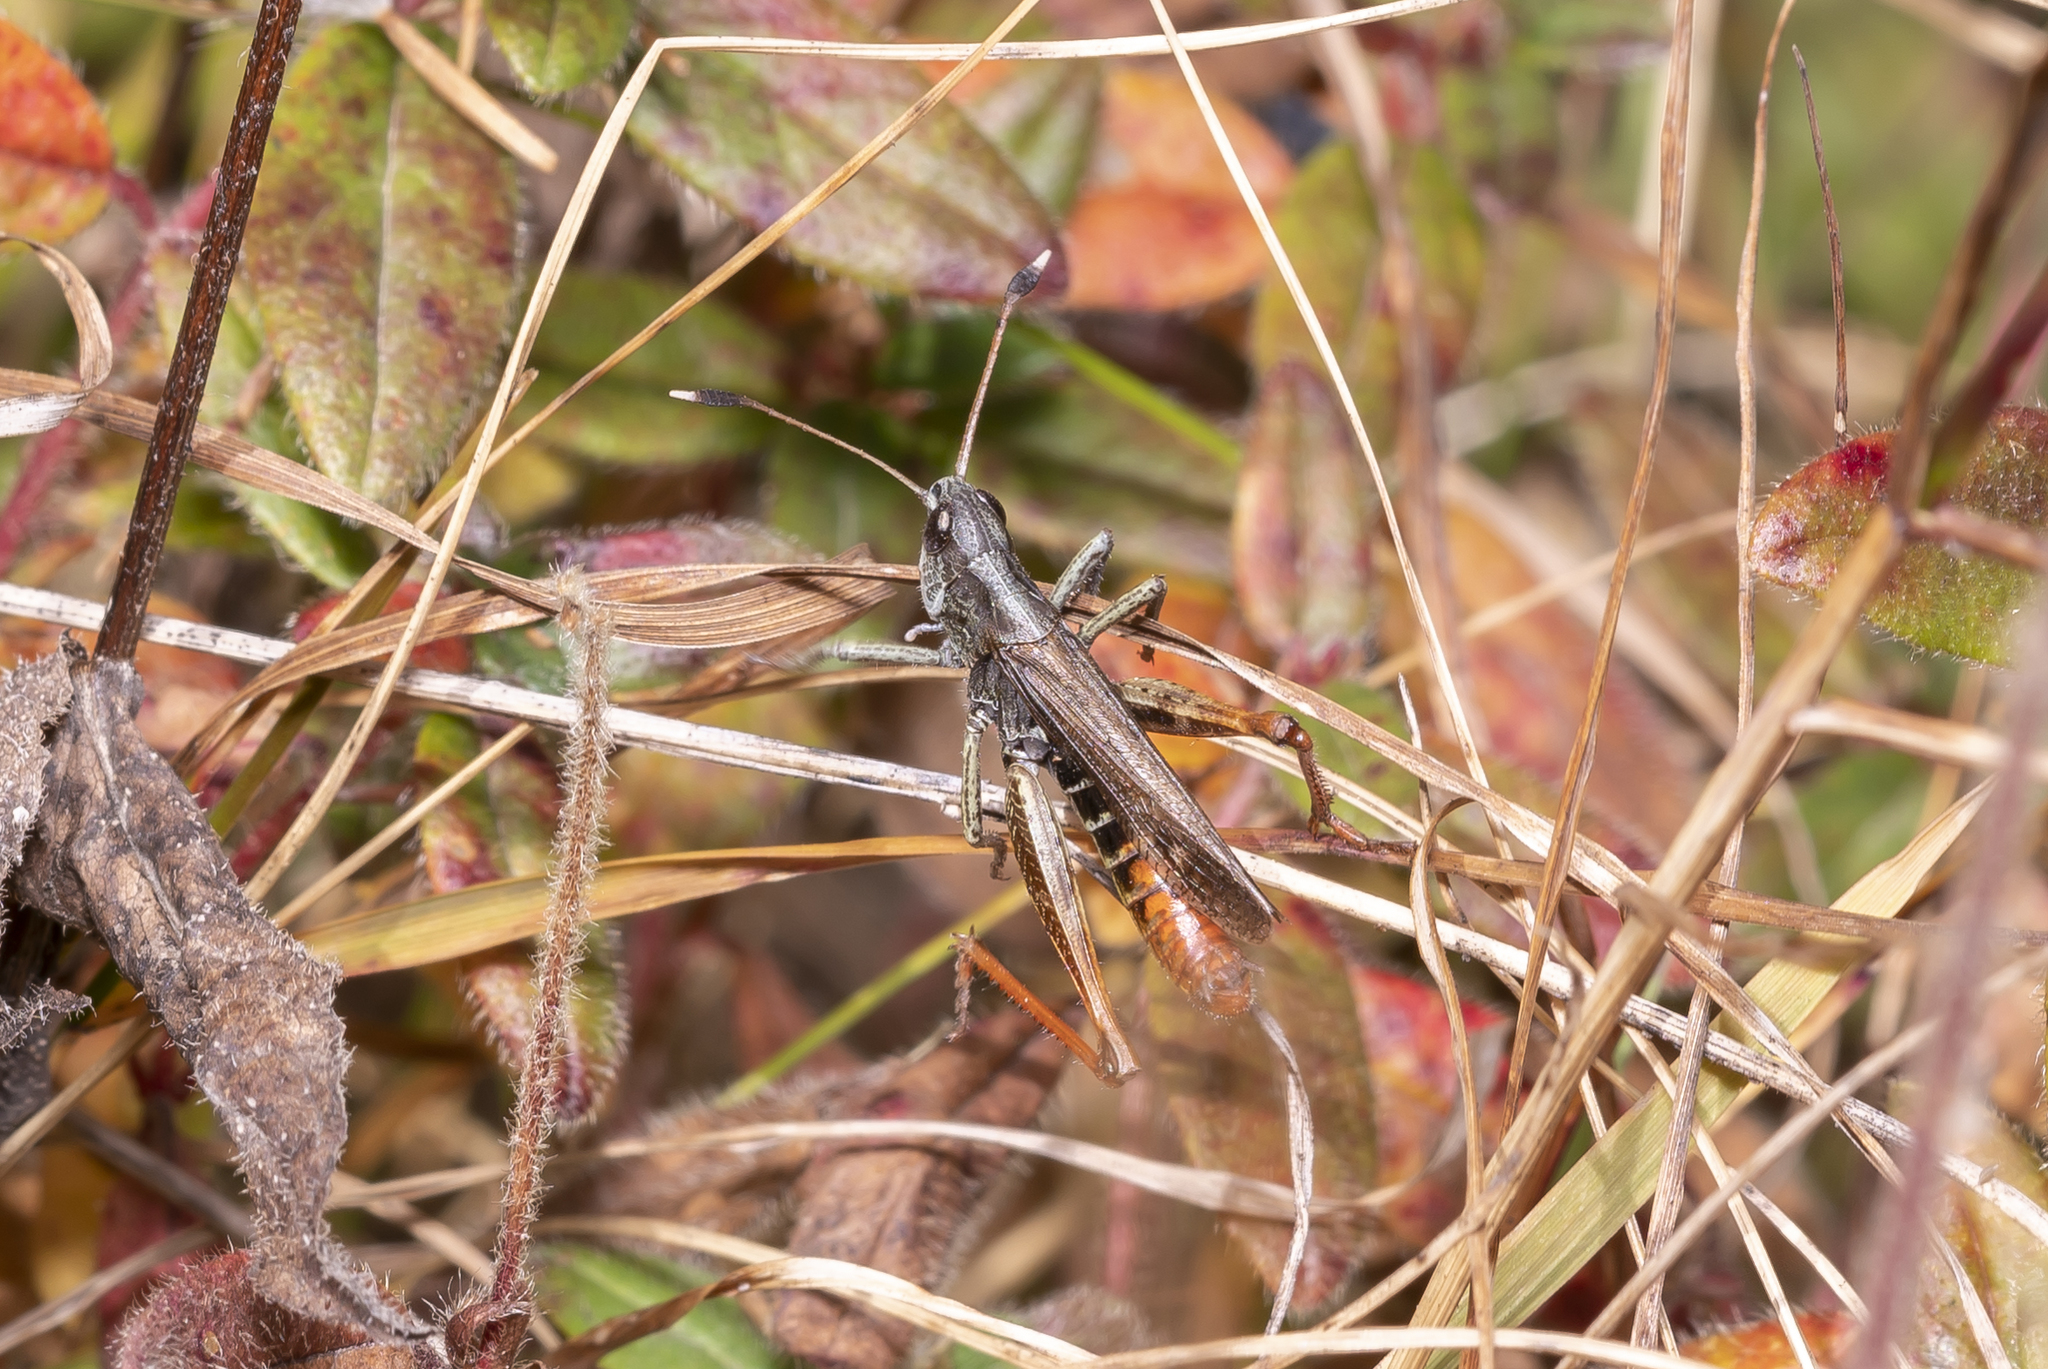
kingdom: Animalia
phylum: Arthropoda
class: Insecta
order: Orthoptera
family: Acrididae
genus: Gomphocerippus
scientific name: Gomphocerippus rufus
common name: Rufous grasshopper
